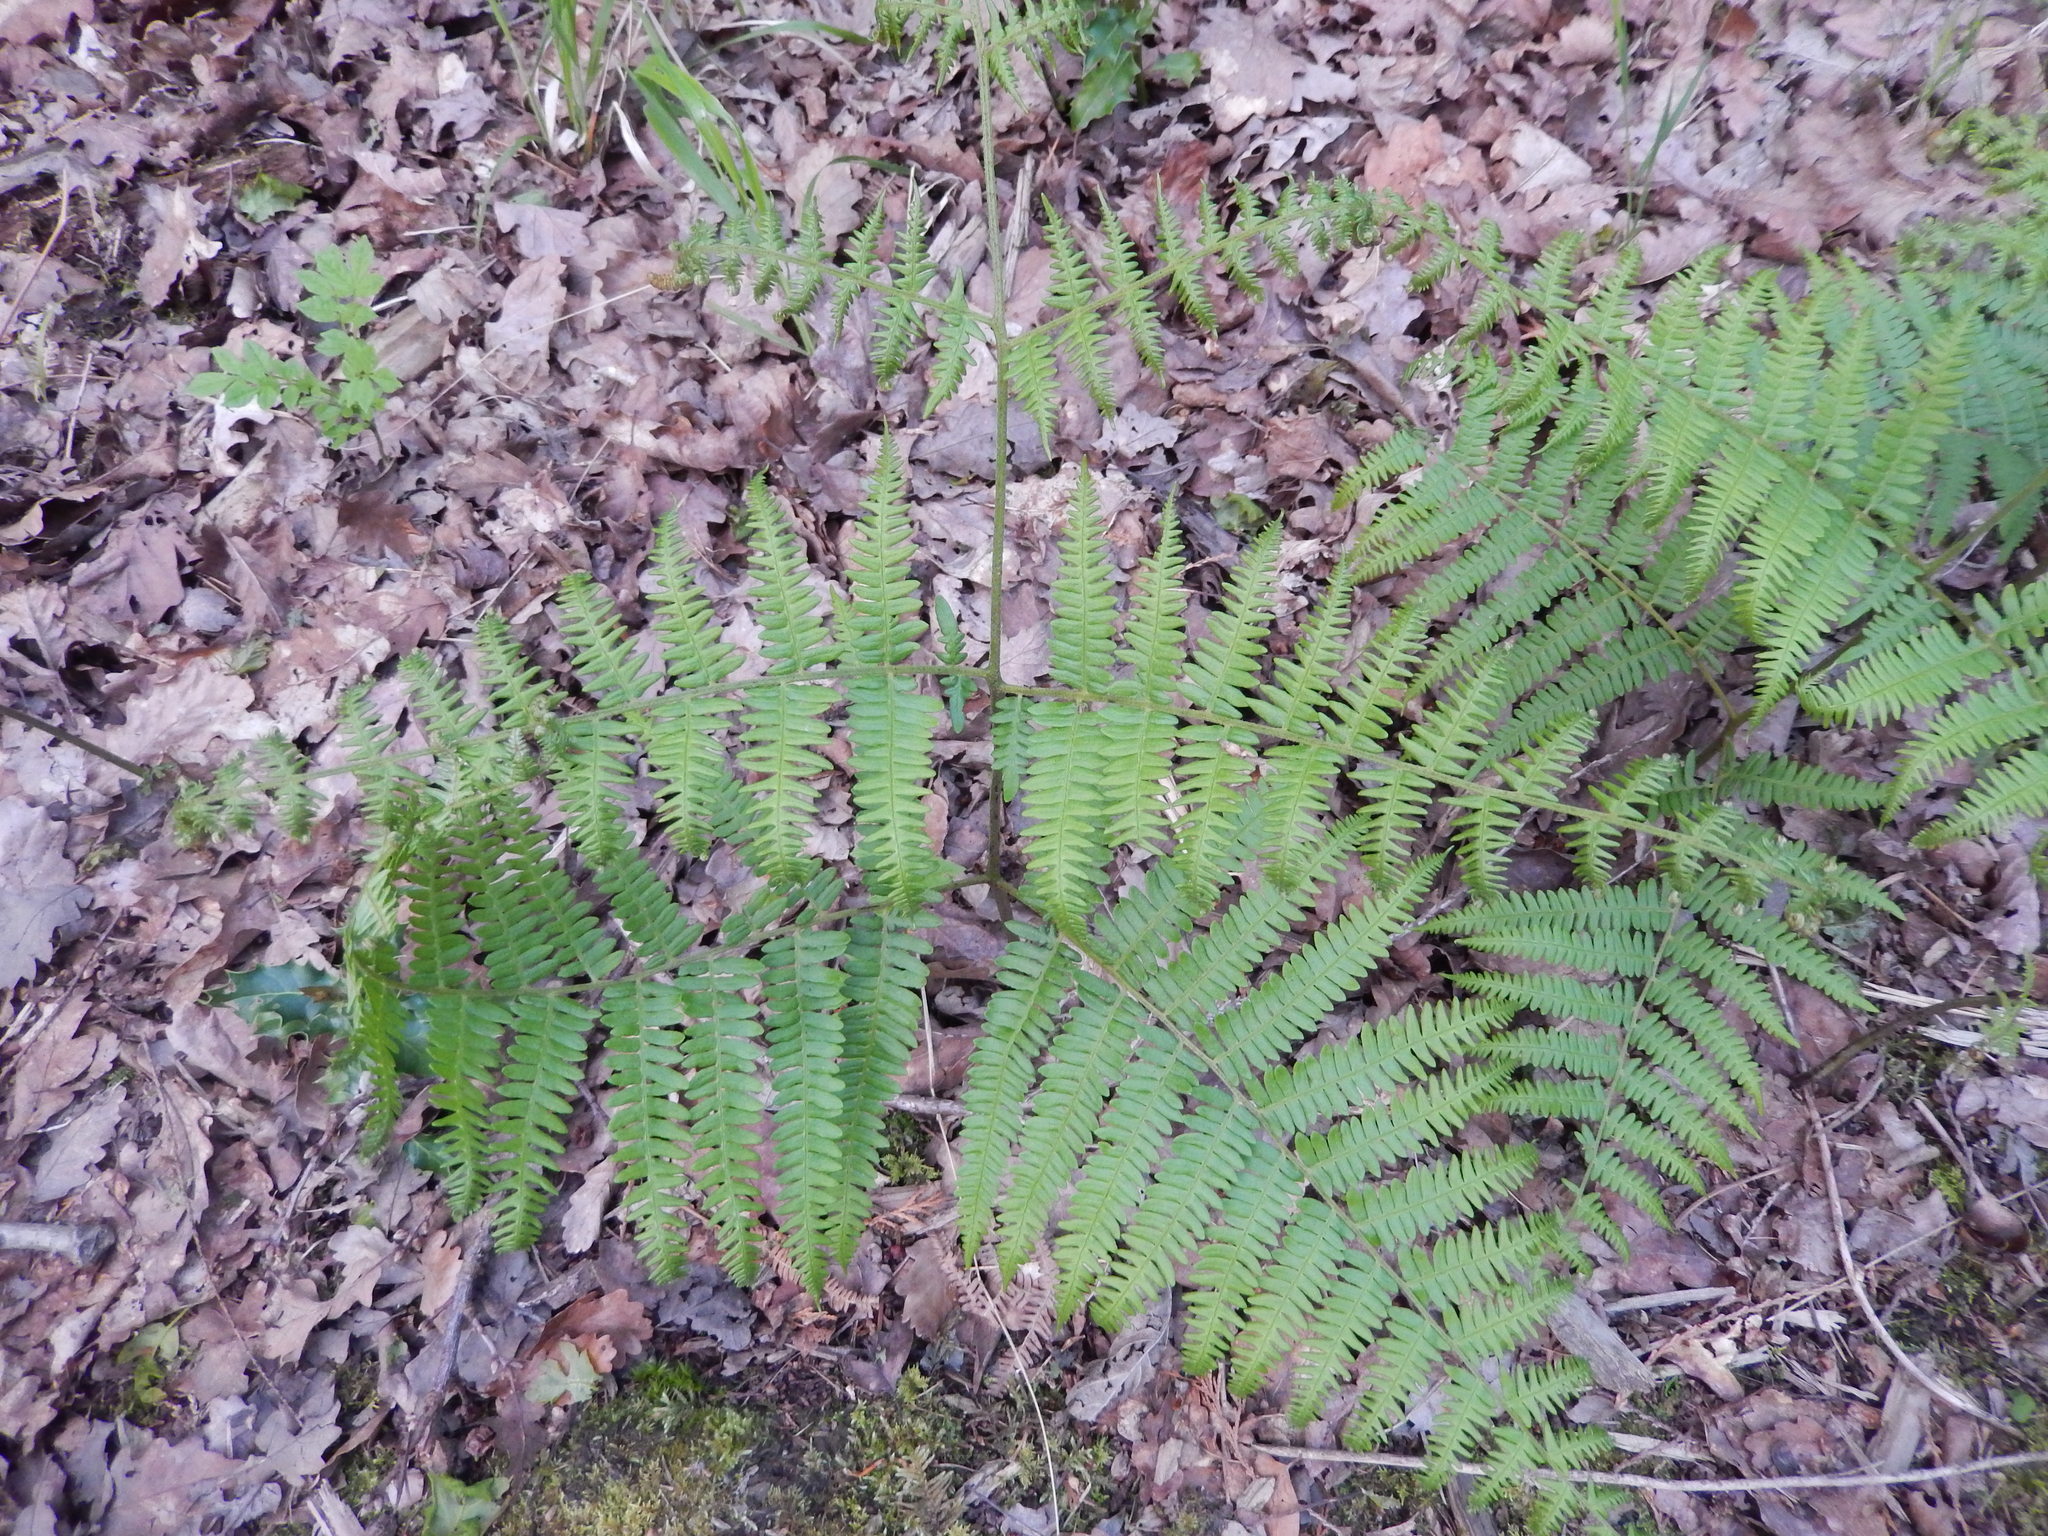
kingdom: Plantae
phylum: Tracheophyta
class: Polypodiopsida
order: Polypodiales
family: Dennstaedtiaceae
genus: Pteridium
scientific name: Pteridium aquilinum
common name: Bracken
